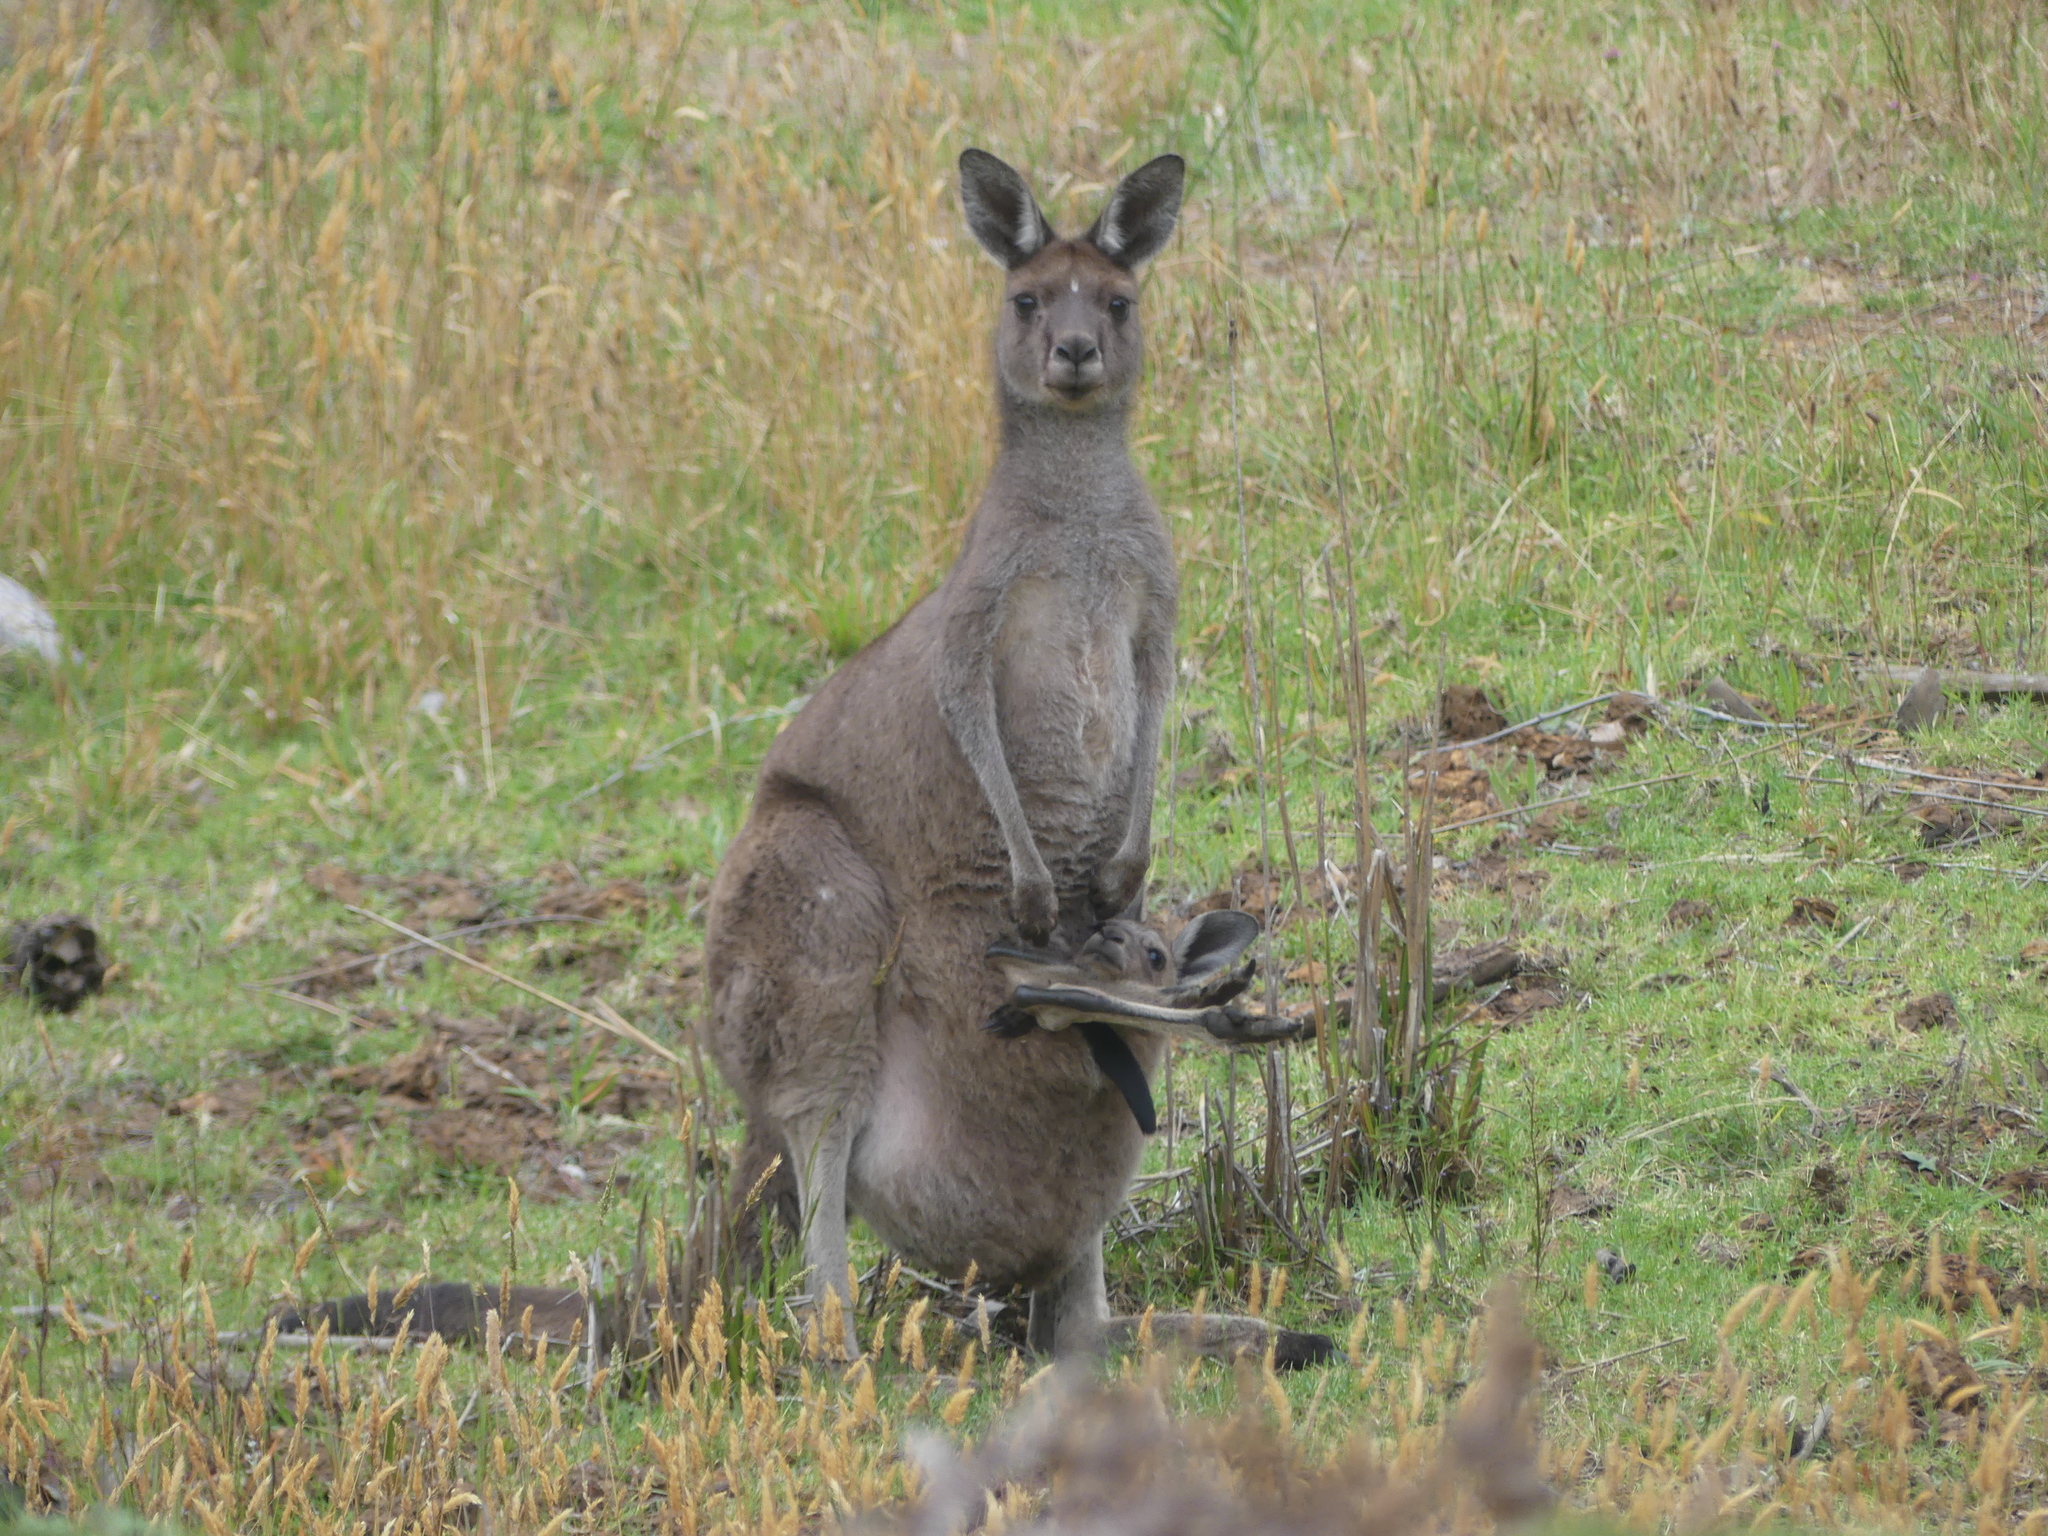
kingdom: Animalia
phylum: Chordata
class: Mammalia
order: Diprotodontia
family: Macropodidae
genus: Macropus
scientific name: Macropus fuliginosus
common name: Western grey kangaroo
